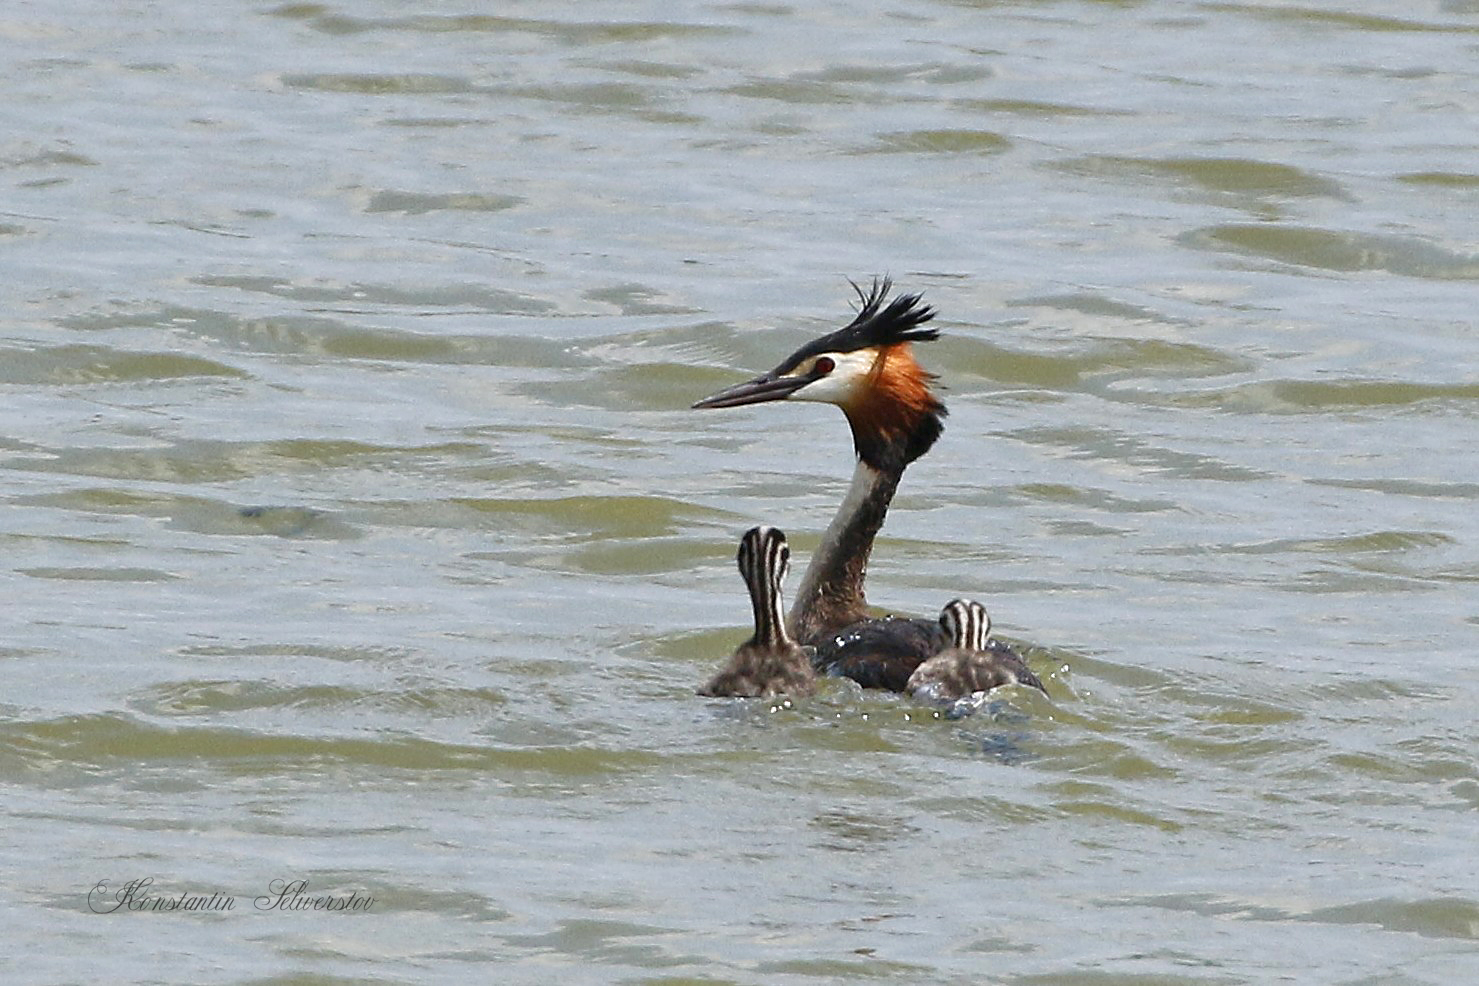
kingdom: Animalia
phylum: Chordata
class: Aves
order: Podicipediformes
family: Podicipedidae
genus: Podiceps
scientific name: Podiceps cristatus
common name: Great crested grebe
